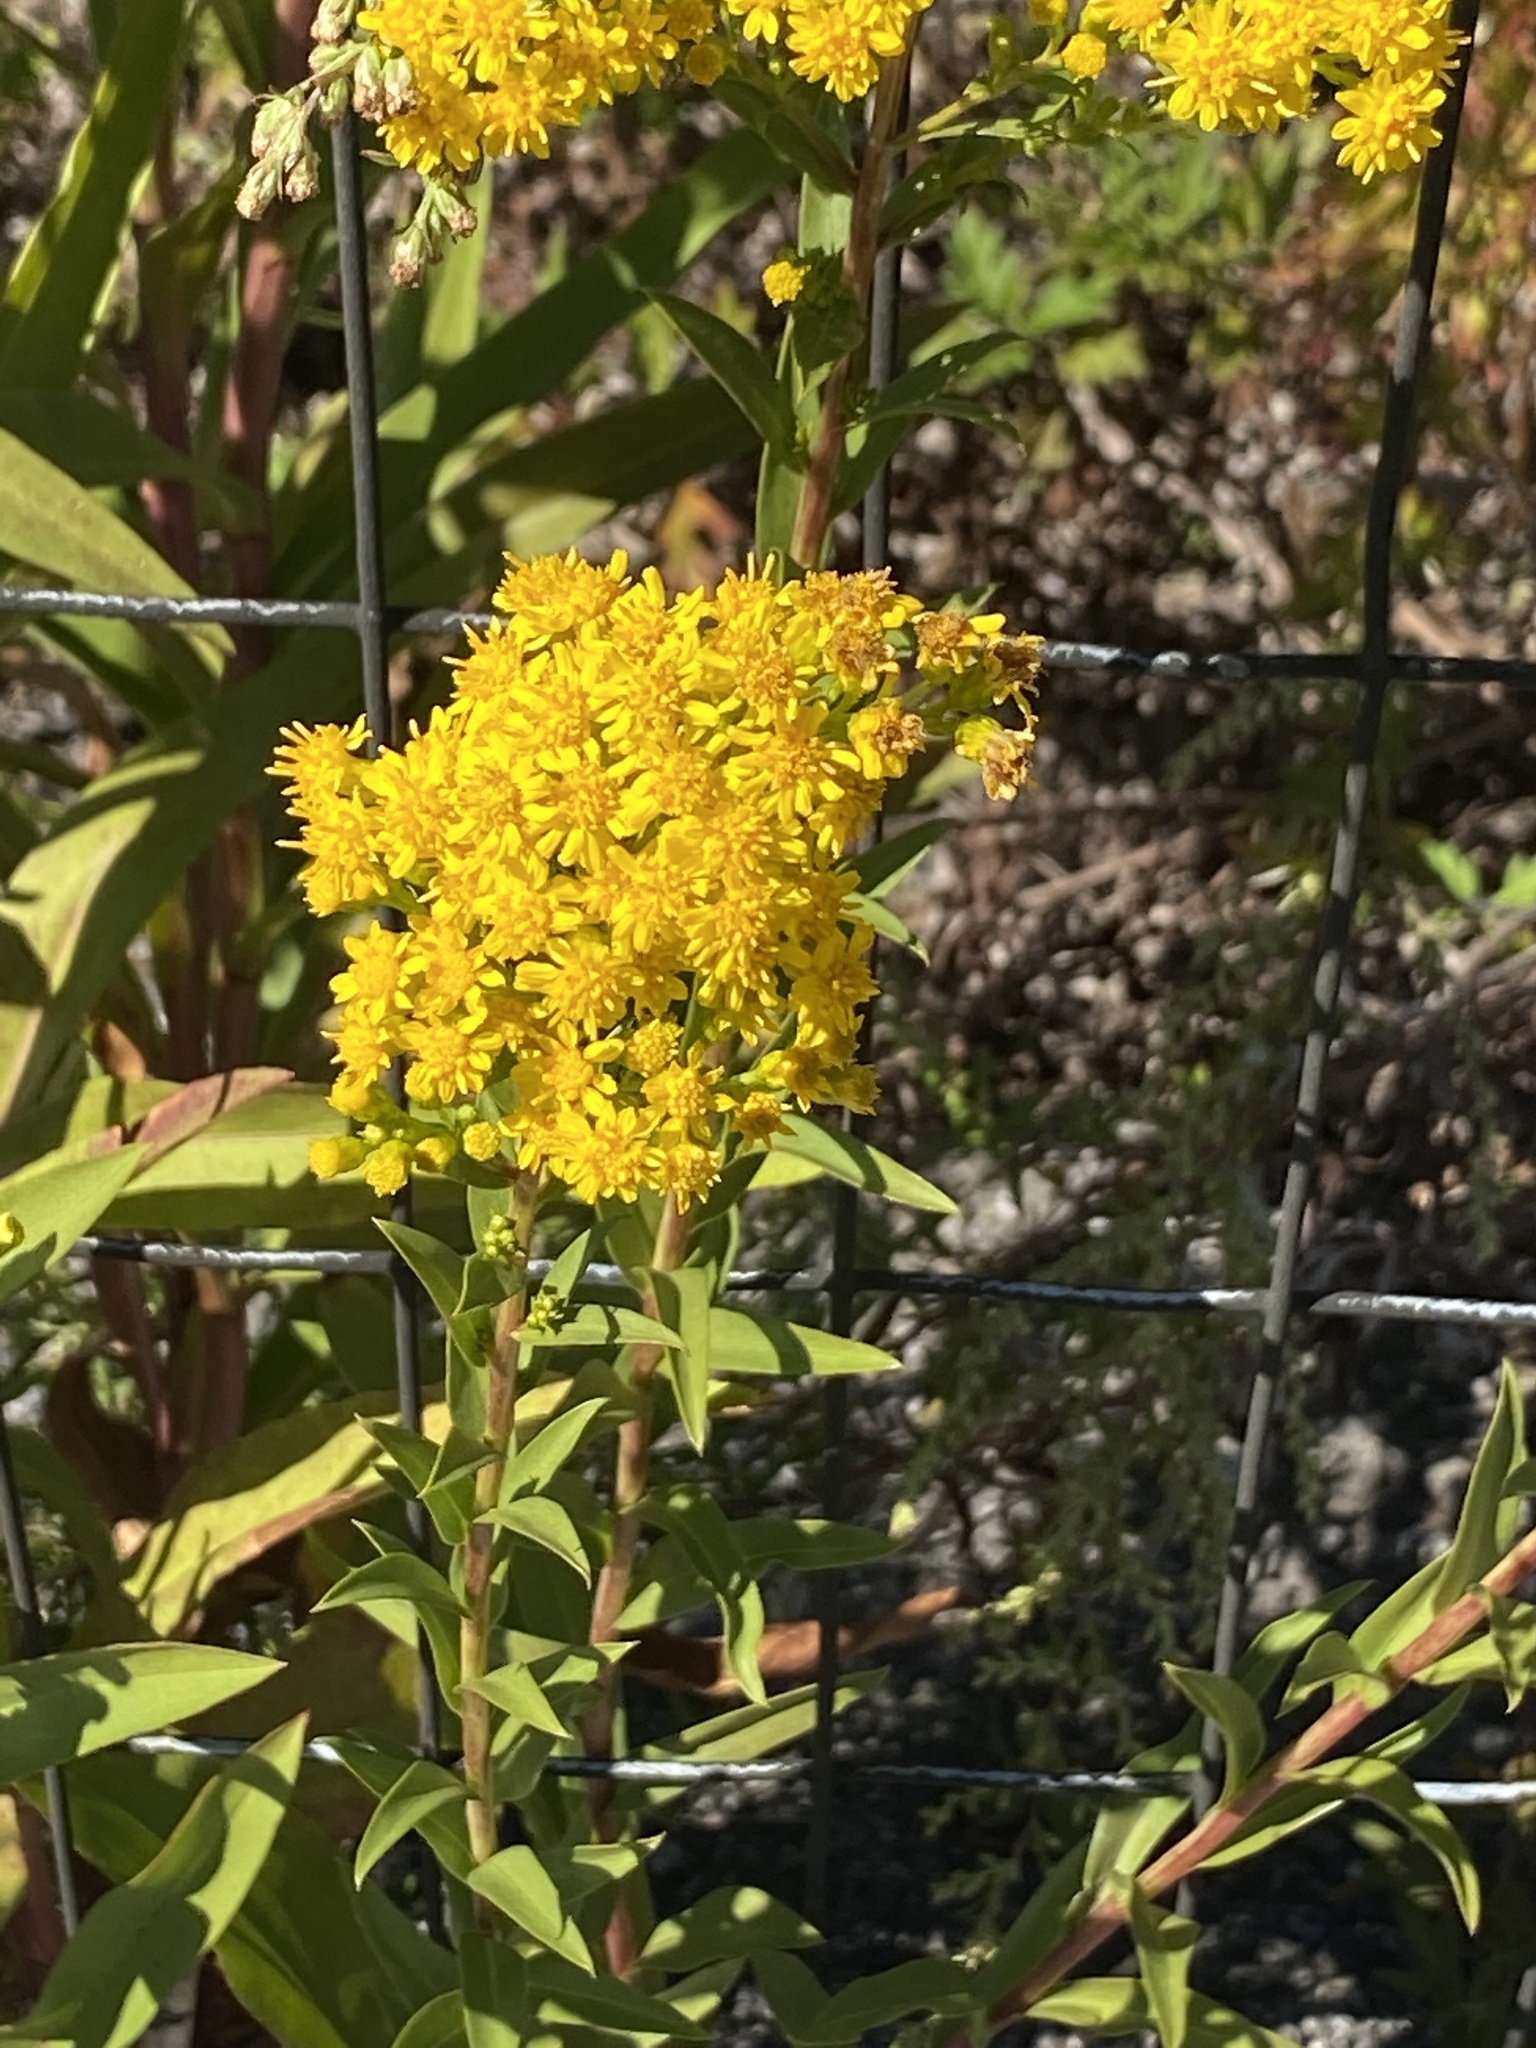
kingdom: Plantae
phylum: Tracheophyta
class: Magnoliopsida
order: Asterales
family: Asteraceae
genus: Solidago
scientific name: Solidago sempervirens
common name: Salt-marsh goldenrod
